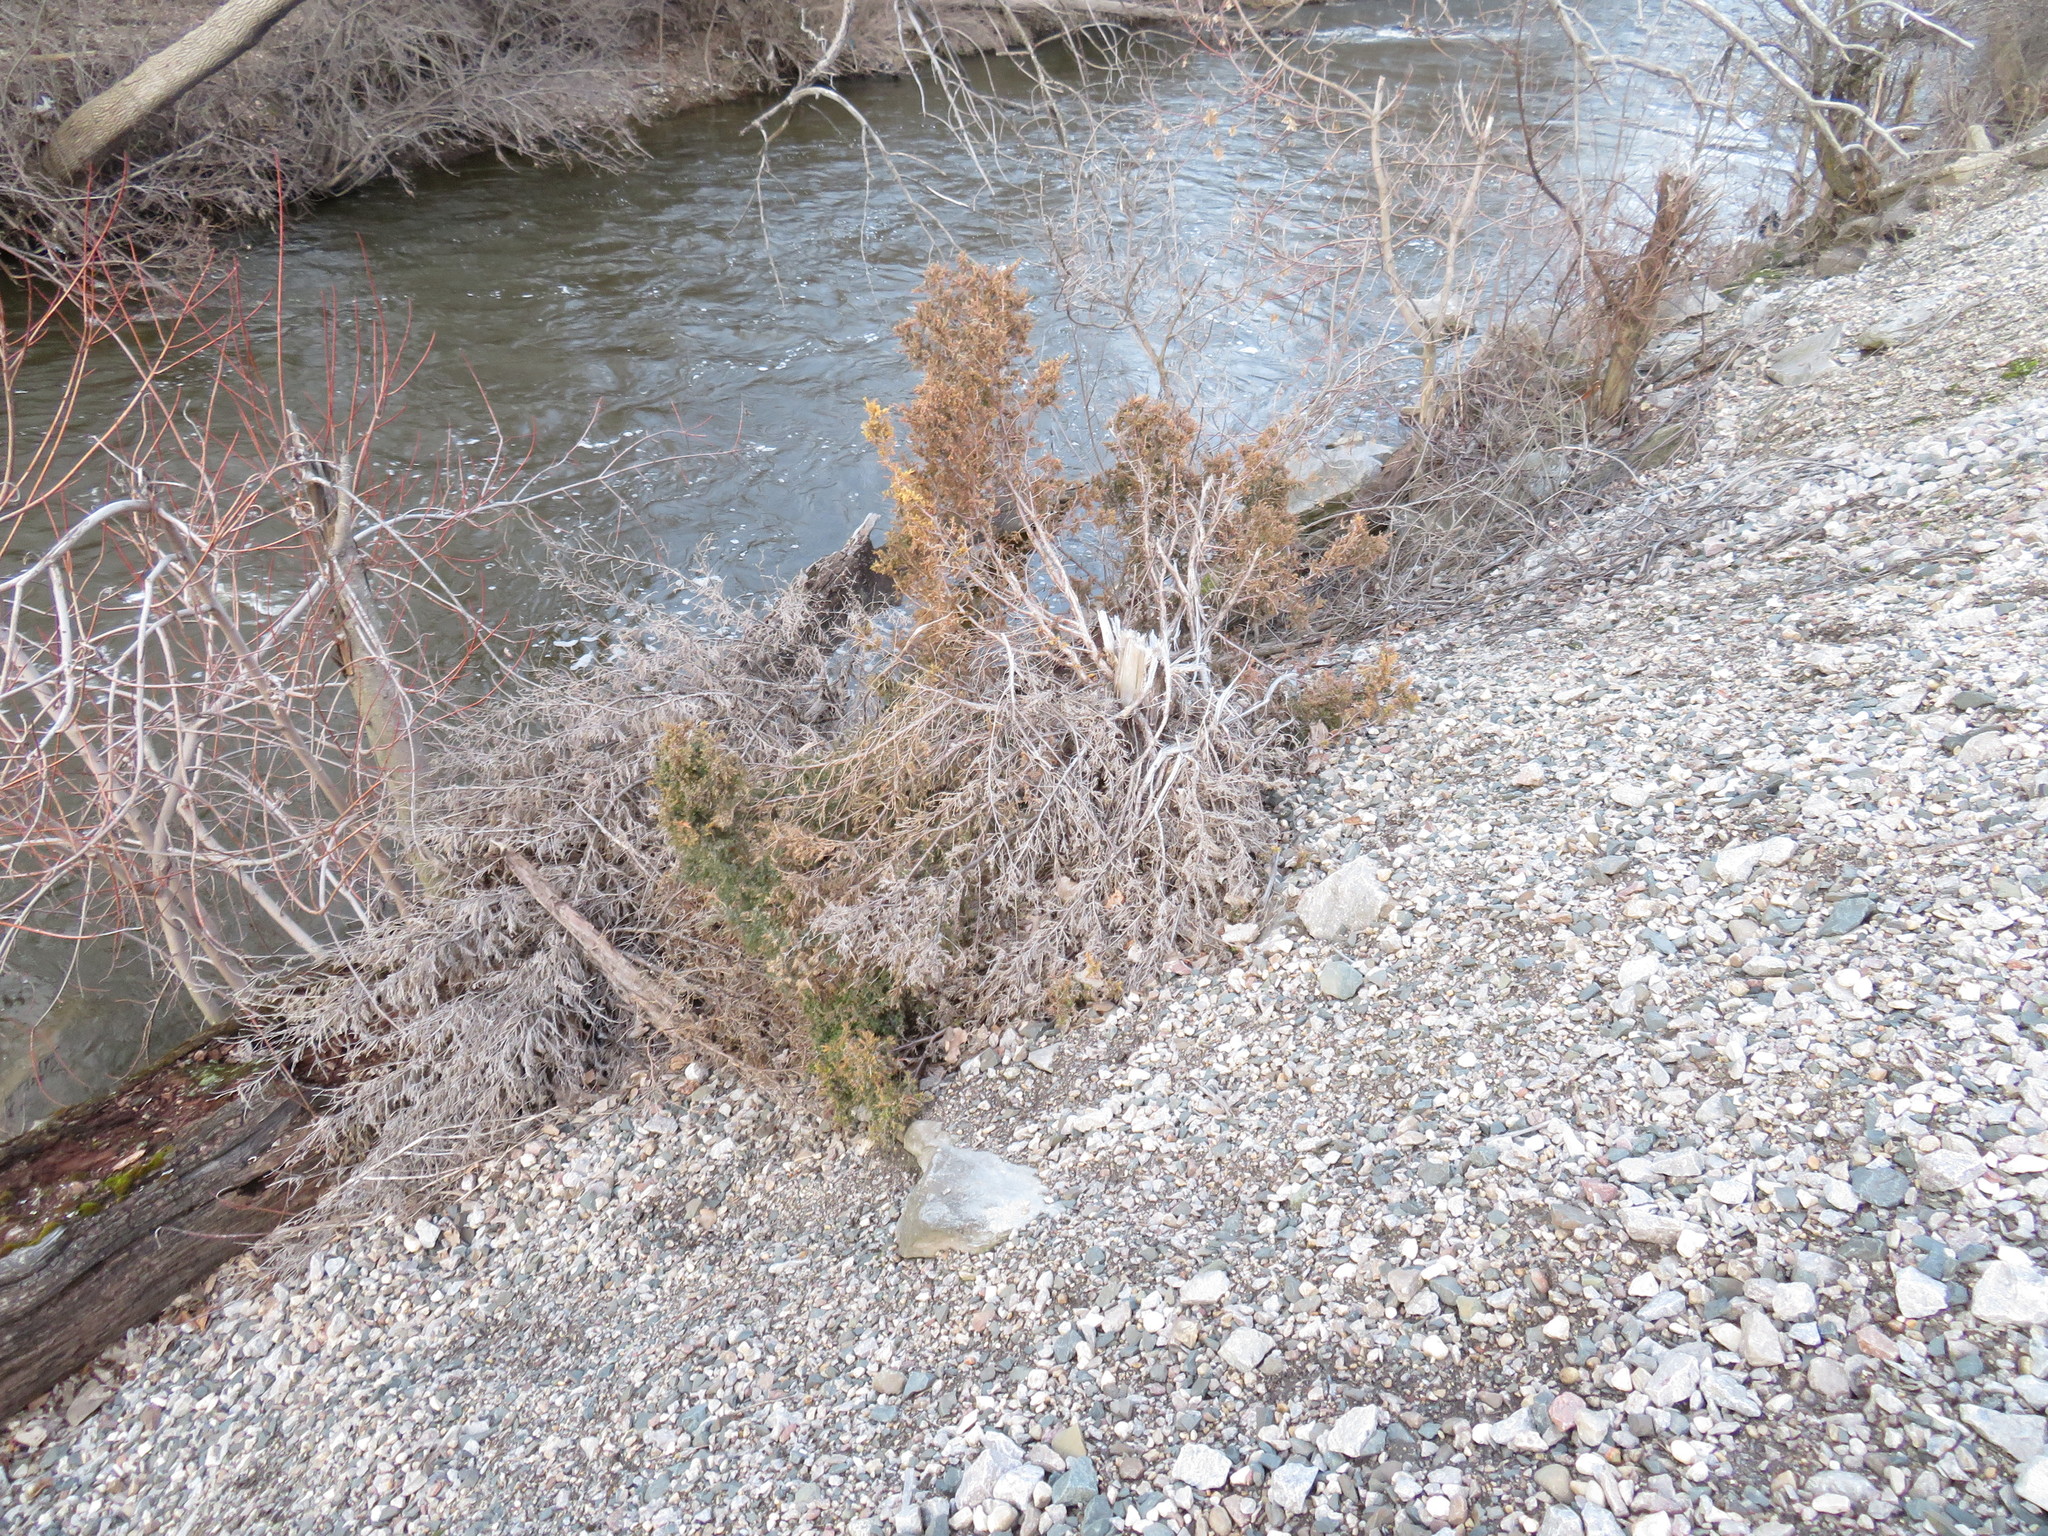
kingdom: Plantae
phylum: Tracheophyta
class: Pinopsida
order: Pinales
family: Cupressaceae
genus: Juniperus
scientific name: Juniperus virginiana
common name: Red juniper
